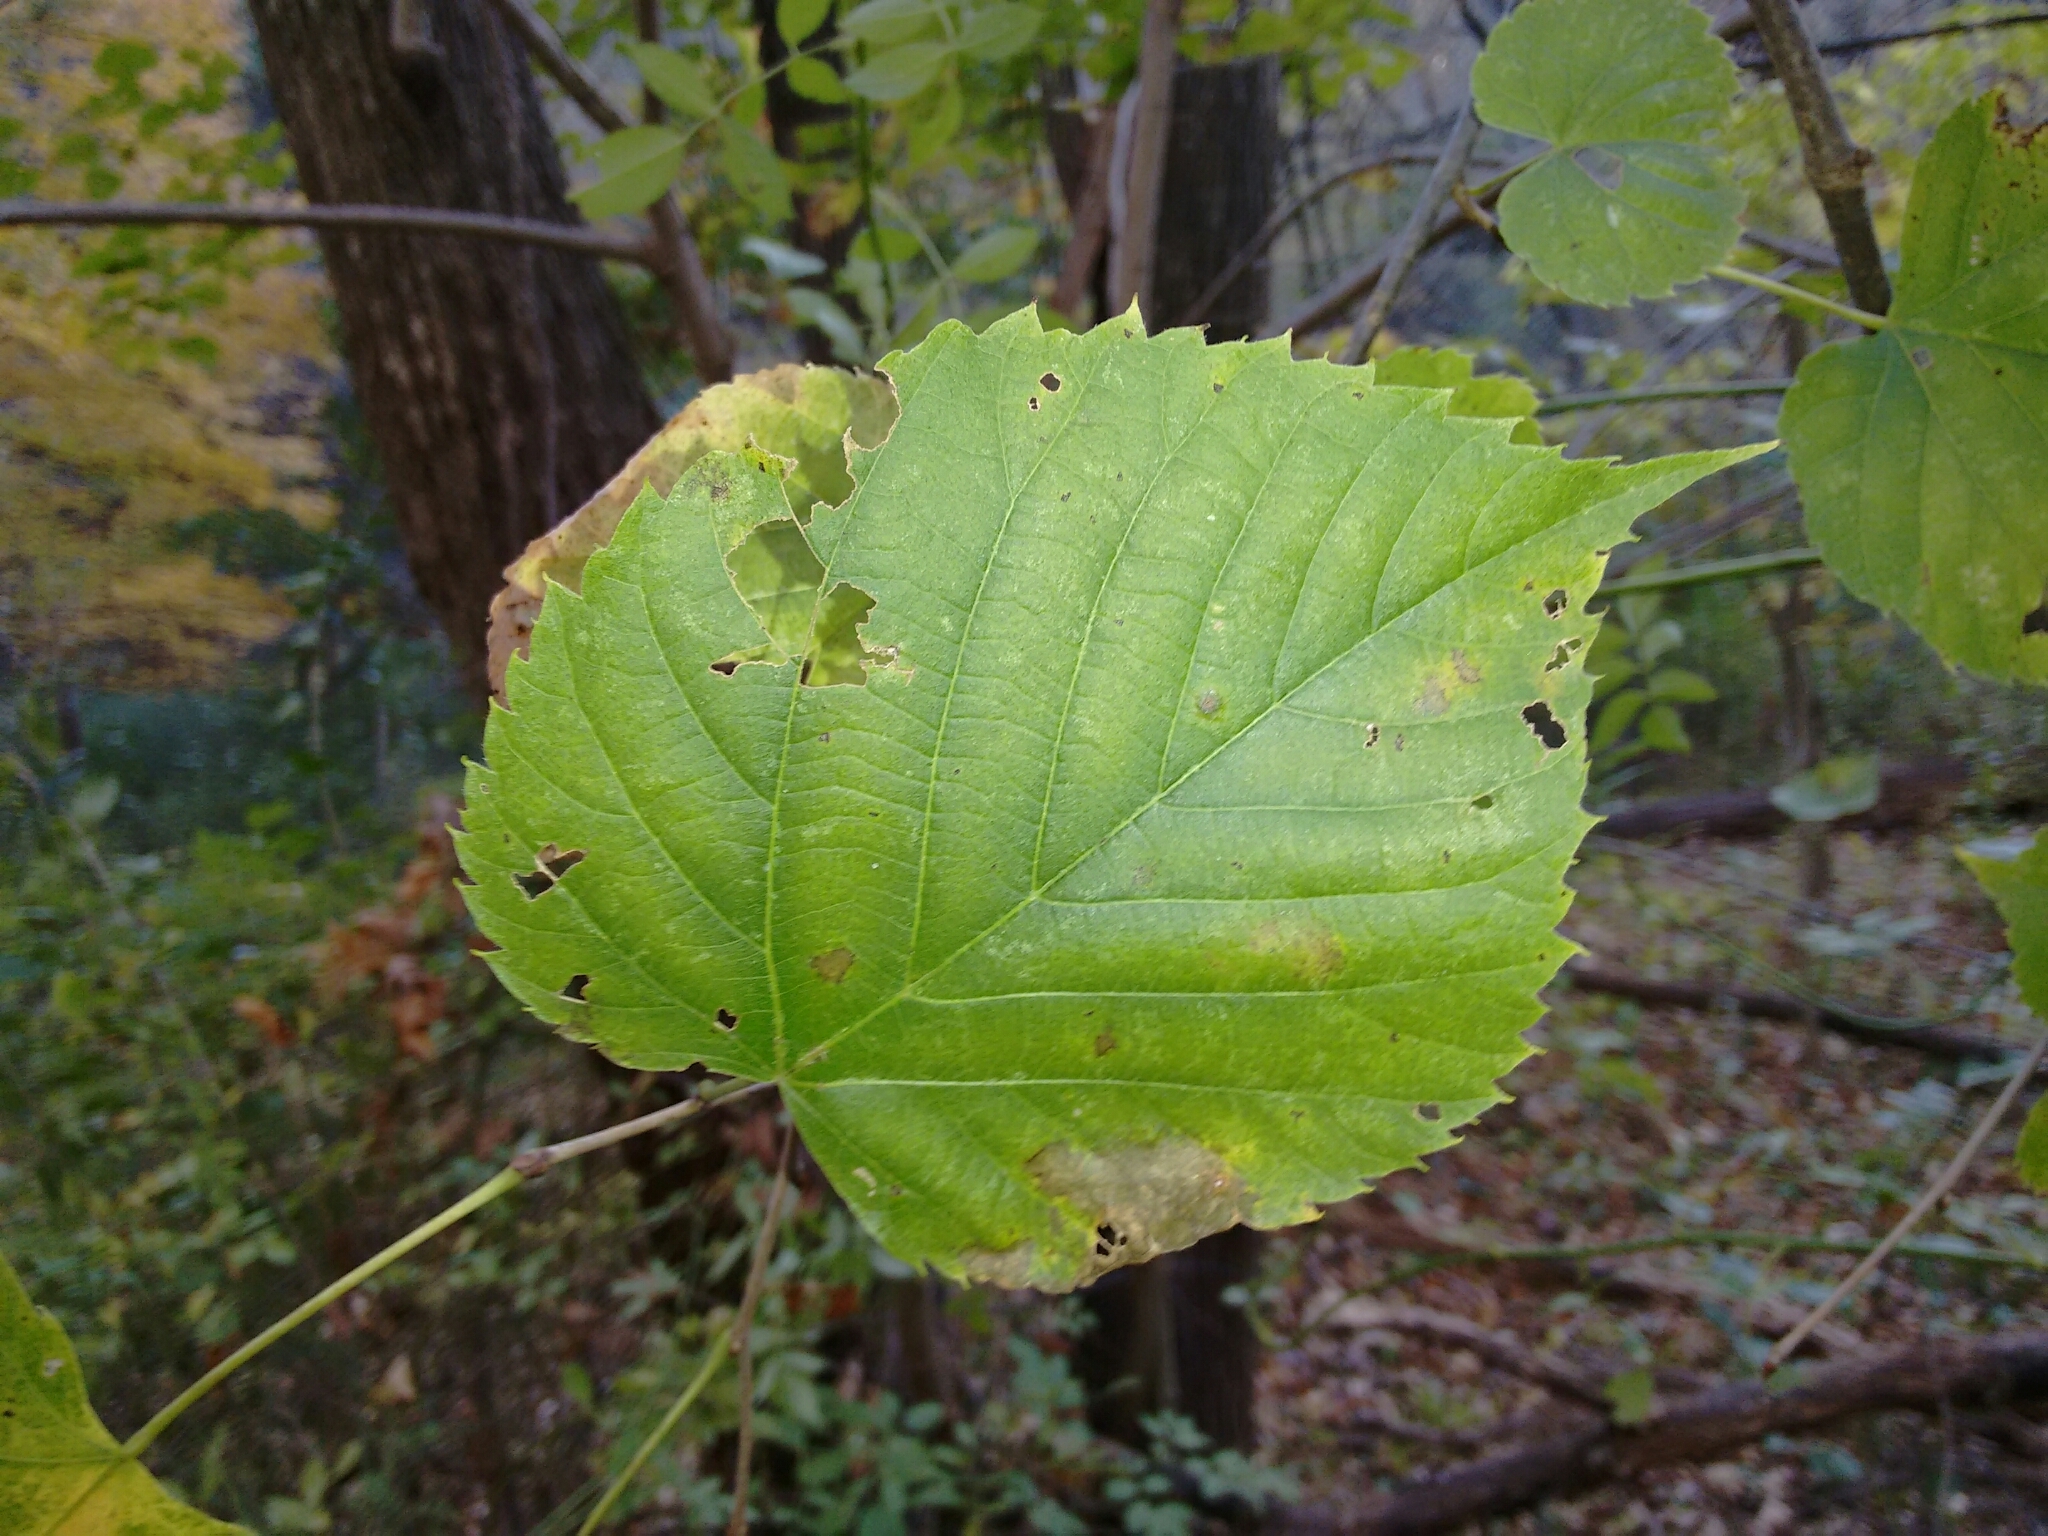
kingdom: Plantae
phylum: Tracheophyta
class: Magnoliopsida
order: Malvales
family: Malvaceae
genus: Tilia
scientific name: Tilia americana
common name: Basswood
